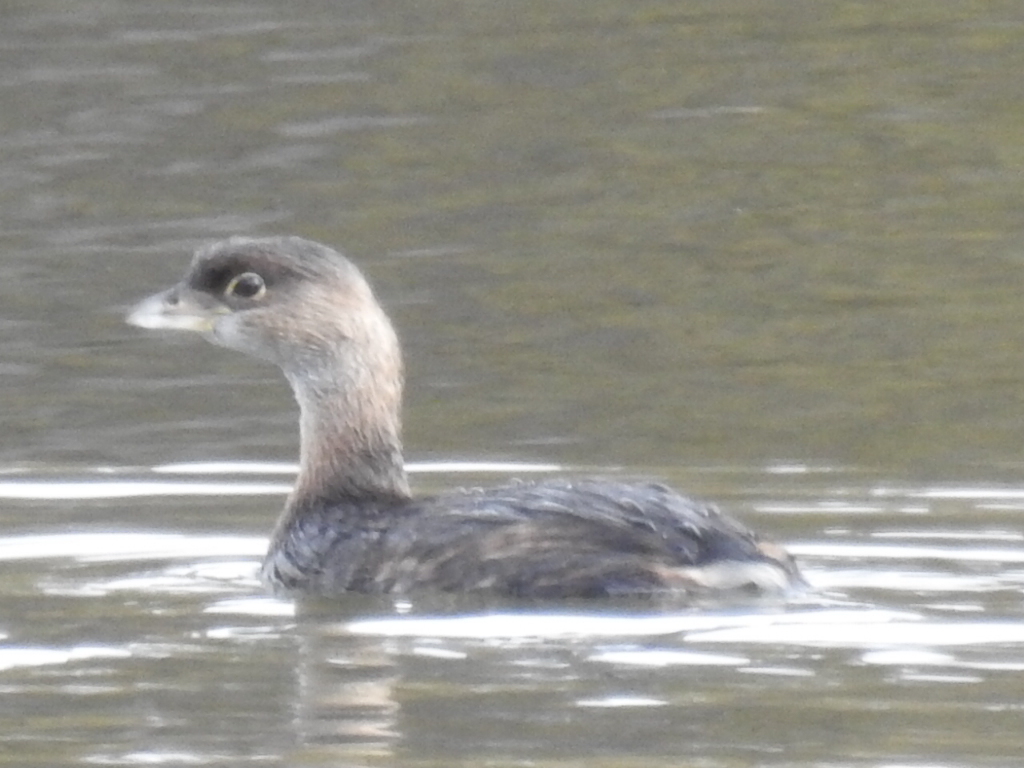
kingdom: Animalia
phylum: Chordata
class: Aves
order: Podicipediformes
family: Podicipedidae
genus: Podilymbus
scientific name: Podilymbus podiceps
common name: Pied-billed grebe
